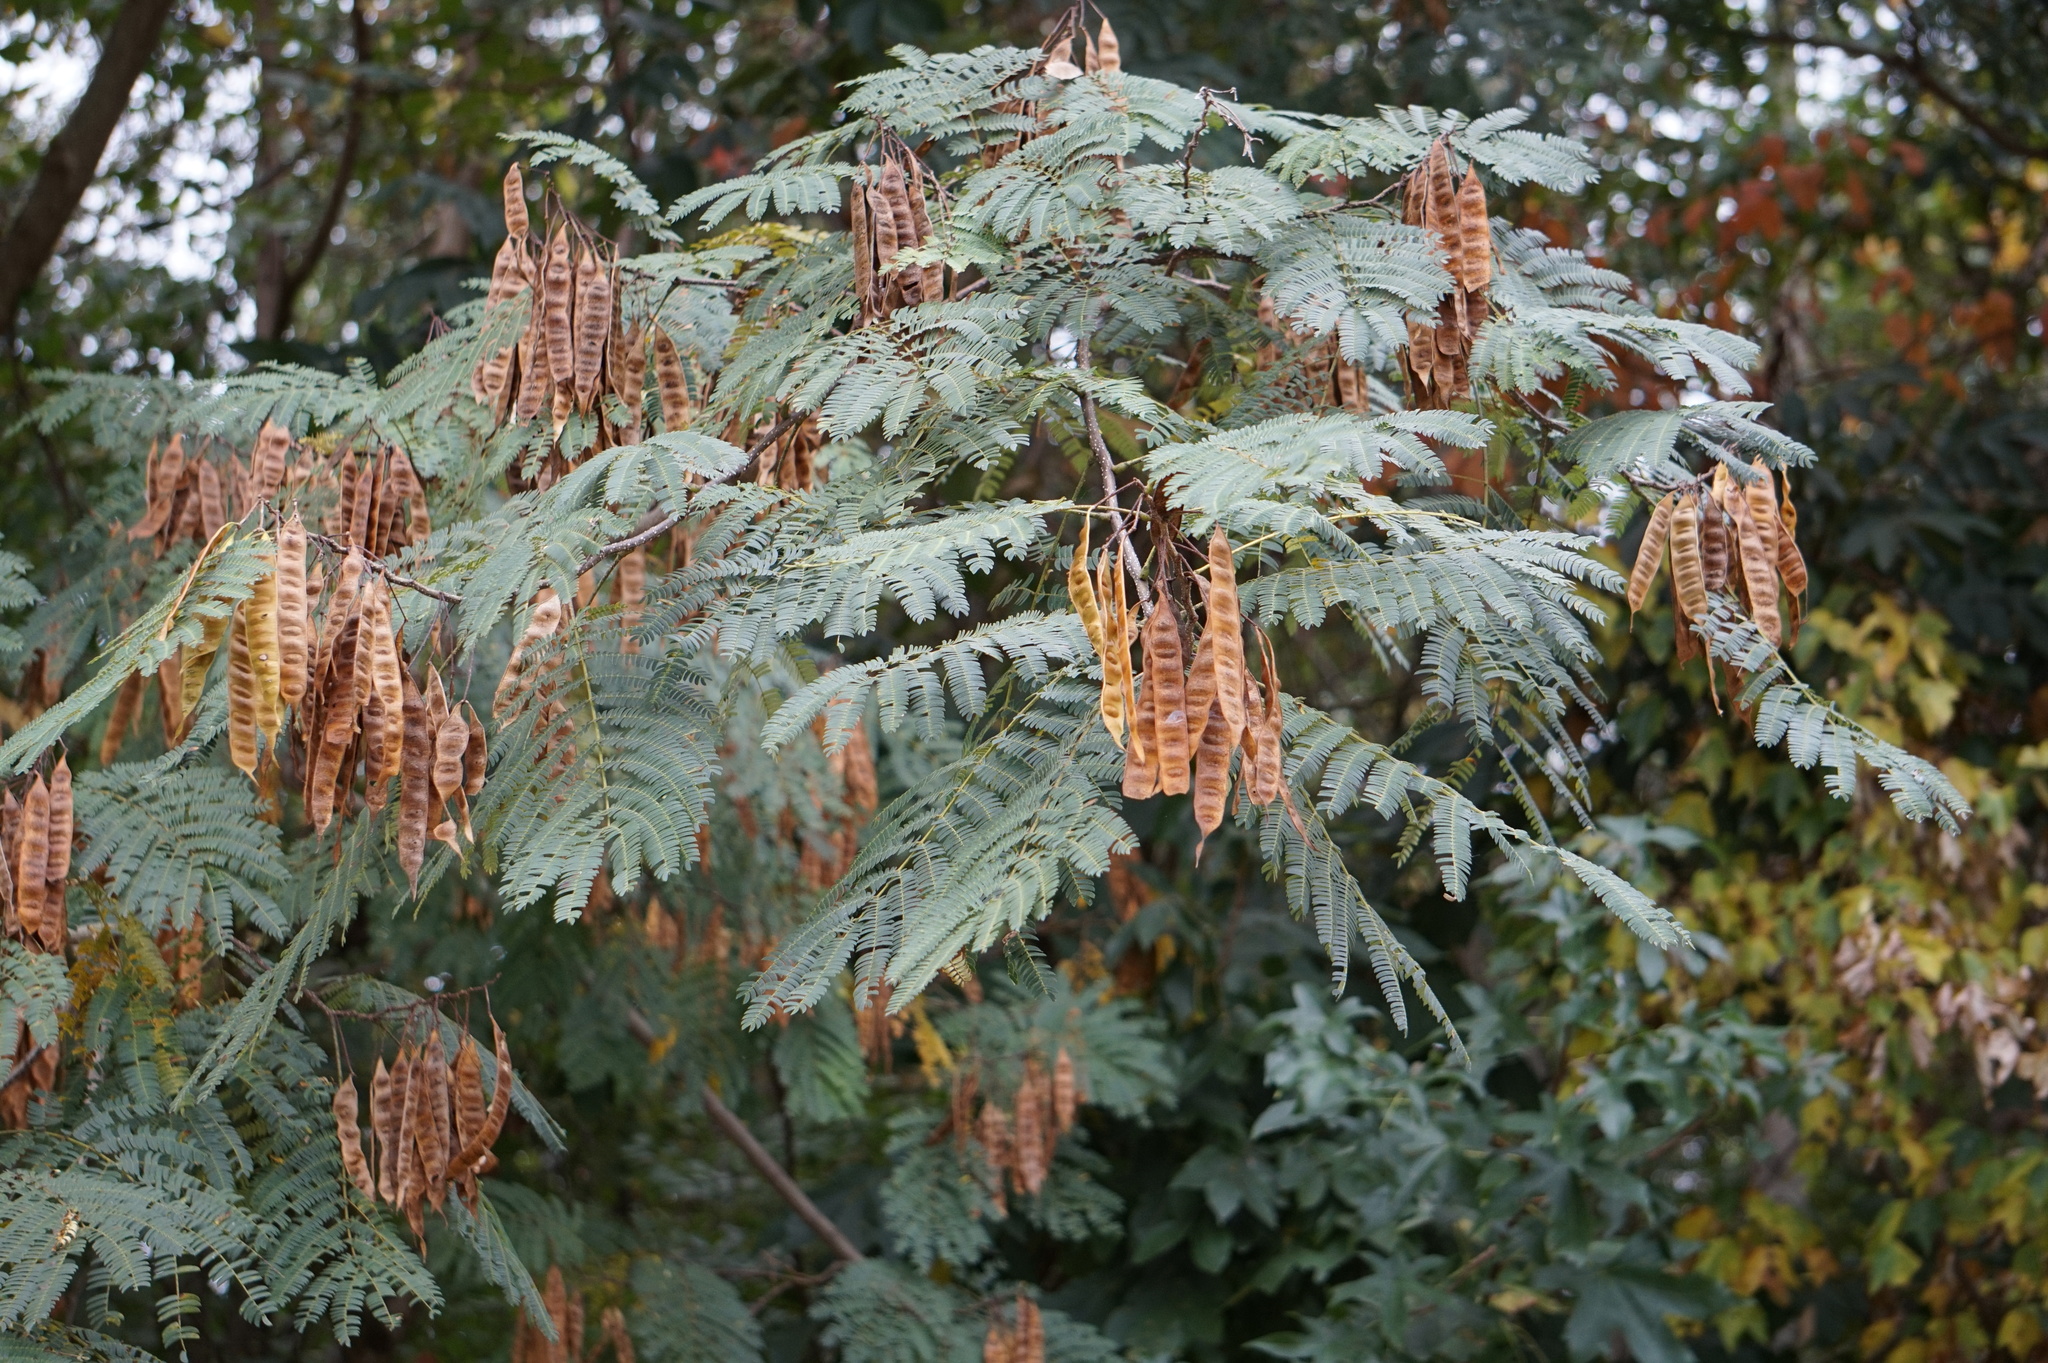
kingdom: Plantae
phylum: Tracheophyta
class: Magnoliopsida
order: Fabales
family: Fabaceae
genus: Albizia
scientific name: Albizia julibrissin
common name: Silktree
